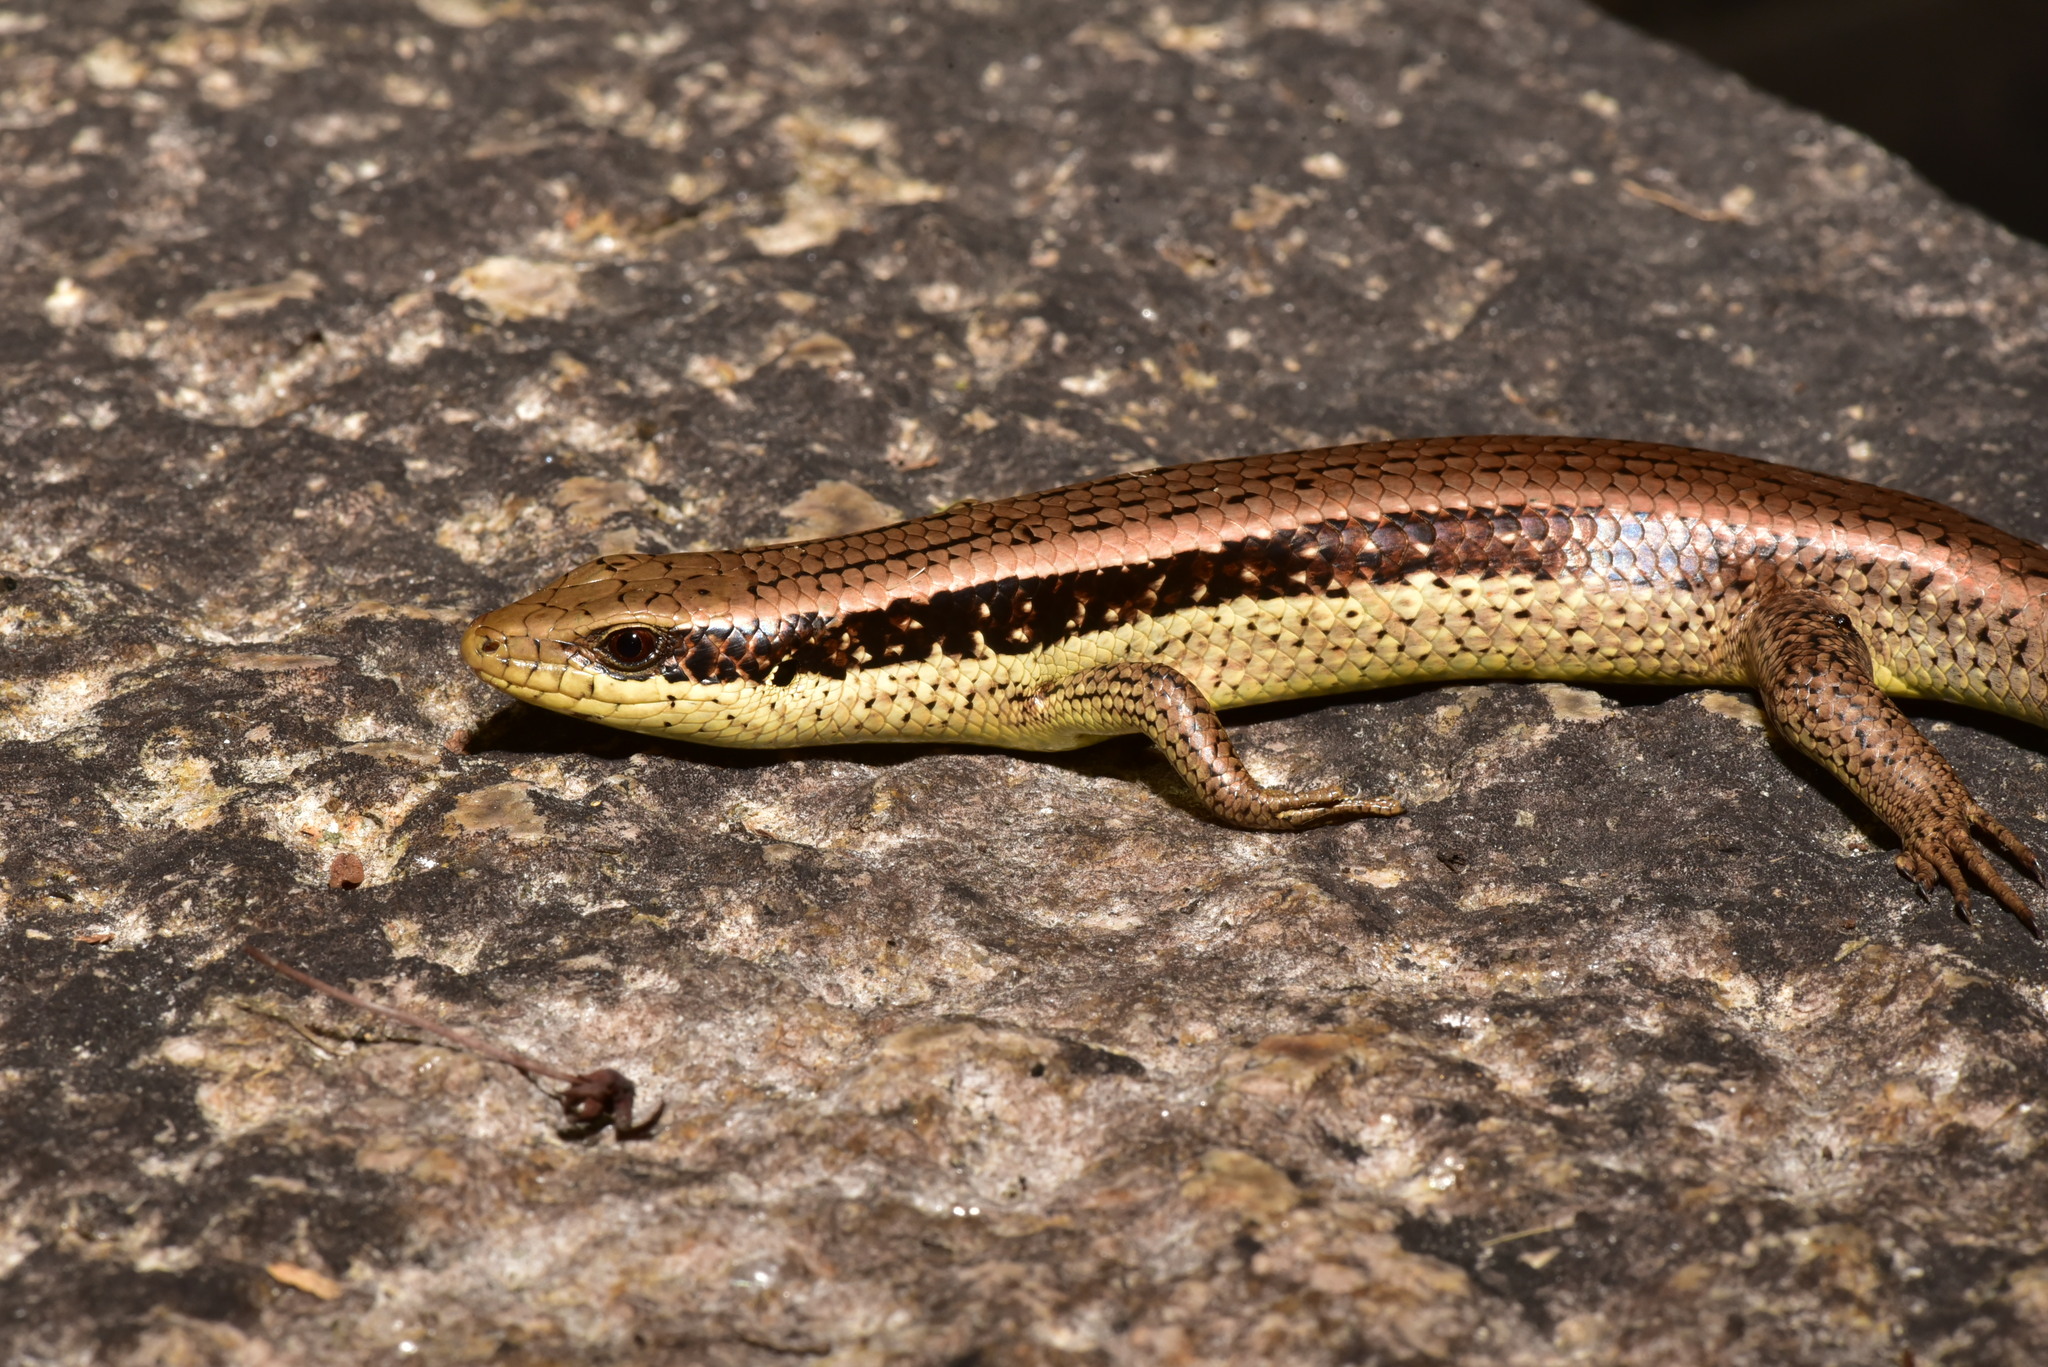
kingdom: Animalia
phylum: Chordata
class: Squamata
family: Scincidae
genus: Eutropis
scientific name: Eutropis longicaudata
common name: Long-tailed sun skink
